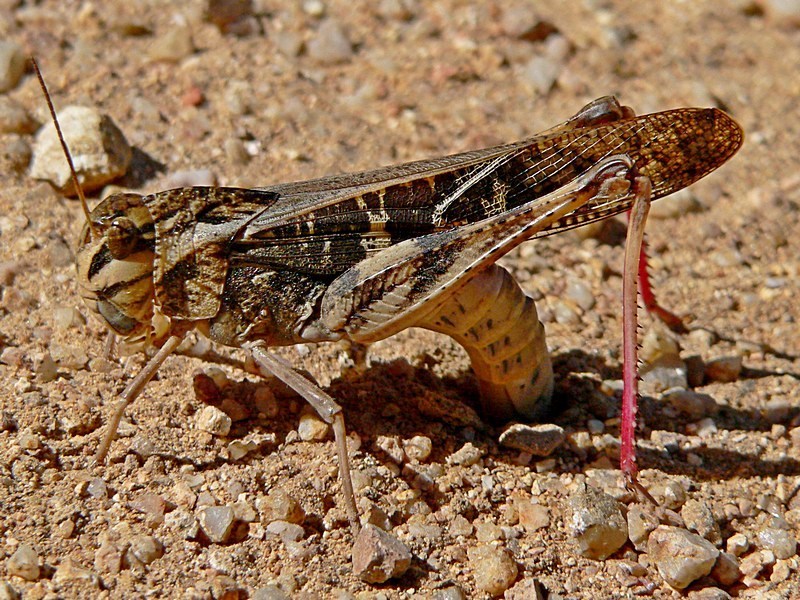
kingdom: Animalia
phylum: Arthropoda
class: Insecta
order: Orthoptera
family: Acrididae
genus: Gastrimargus
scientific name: Gastrimargus musicus
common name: Yellow-winged locust
